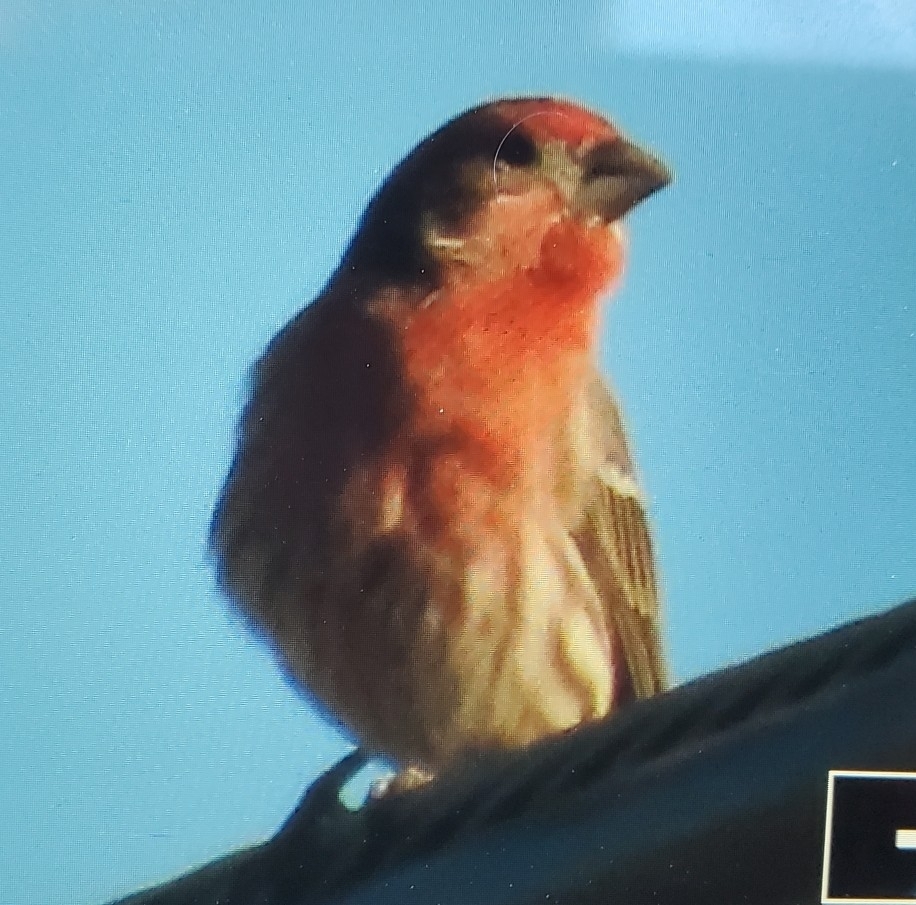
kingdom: Animalia
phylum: Chordata
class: Aves
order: Passeriformes
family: Fringillidae
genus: Haemorhous
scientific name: Haemorhous mexicanus
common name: House finch
